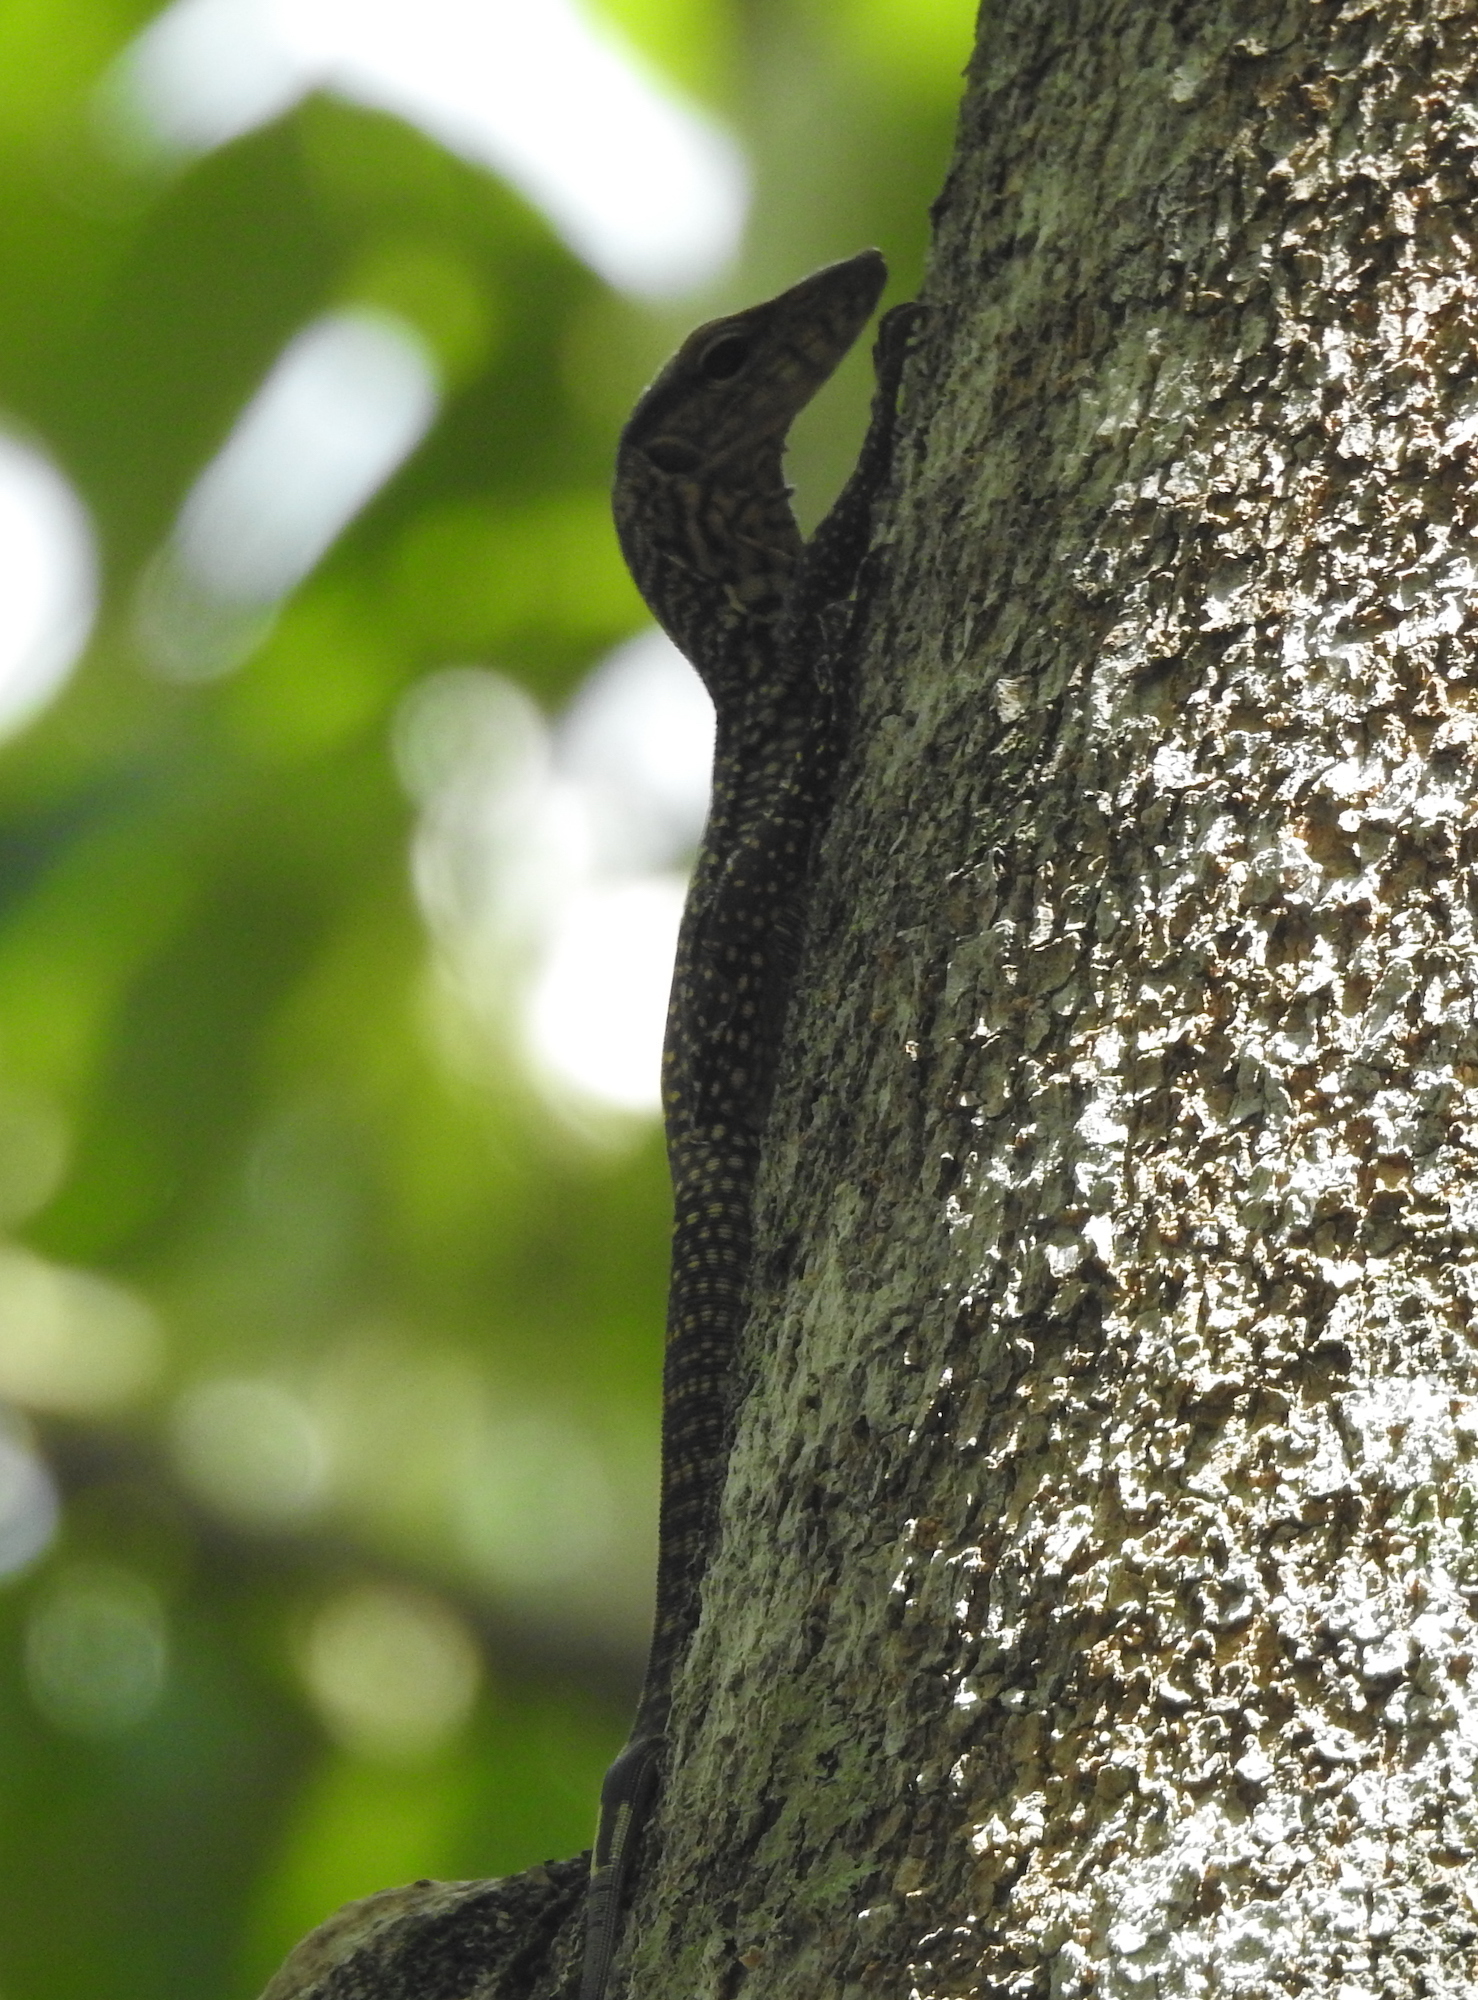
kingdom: Animalia
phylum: Chordata
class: Squamata
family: Varanidae
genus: Varanus
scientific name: Varanus nebulosus
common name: Clouded monitor
